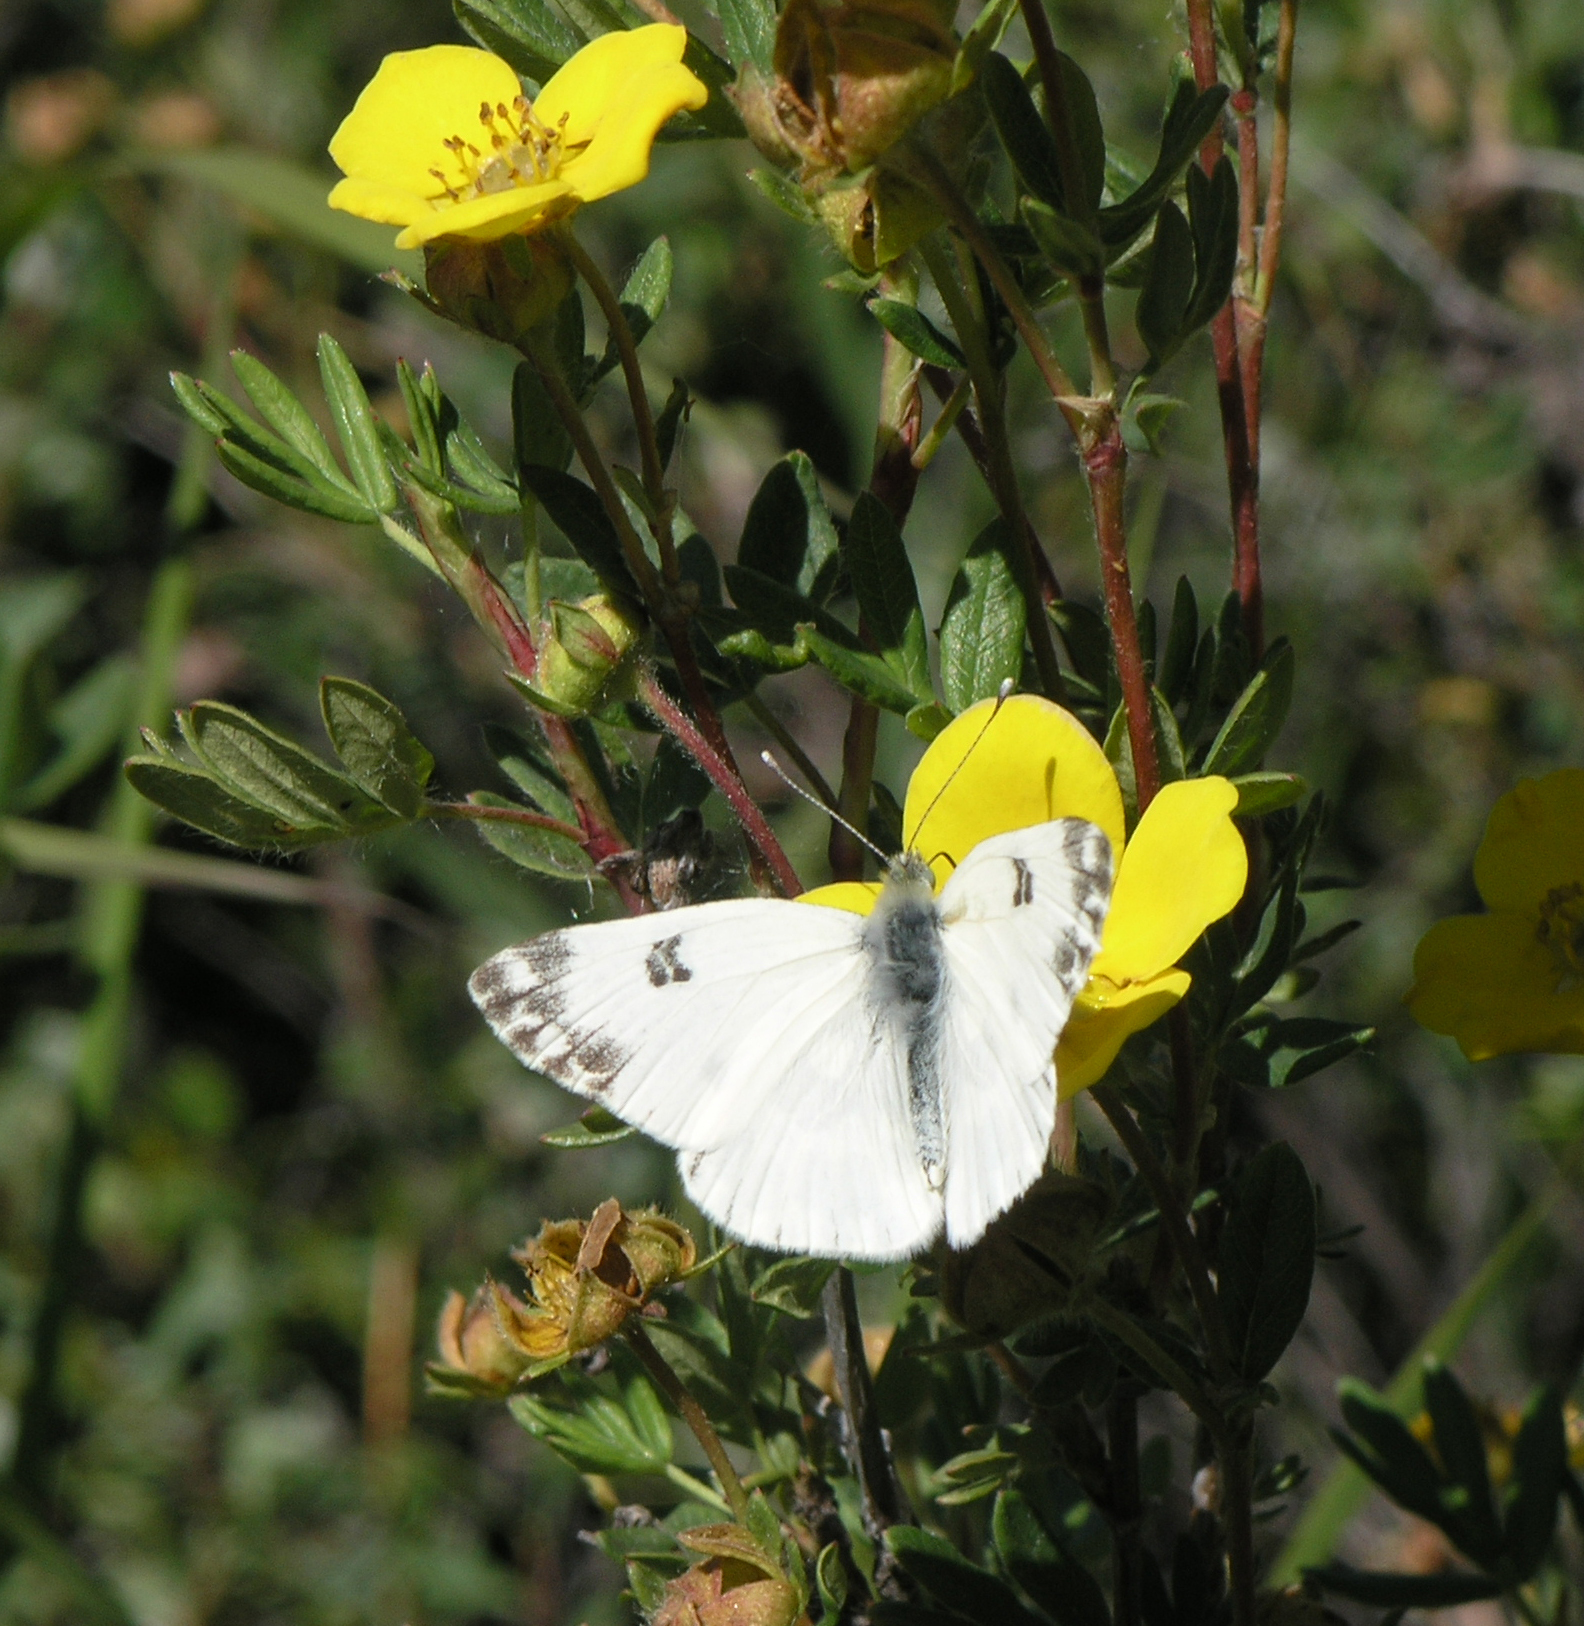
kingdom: Animalia
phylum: Arthropoda
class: Insecta
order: Lepidoptera
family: Pieridae
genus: Pontia
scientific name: Pontia edusa
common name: Eastern bath white
